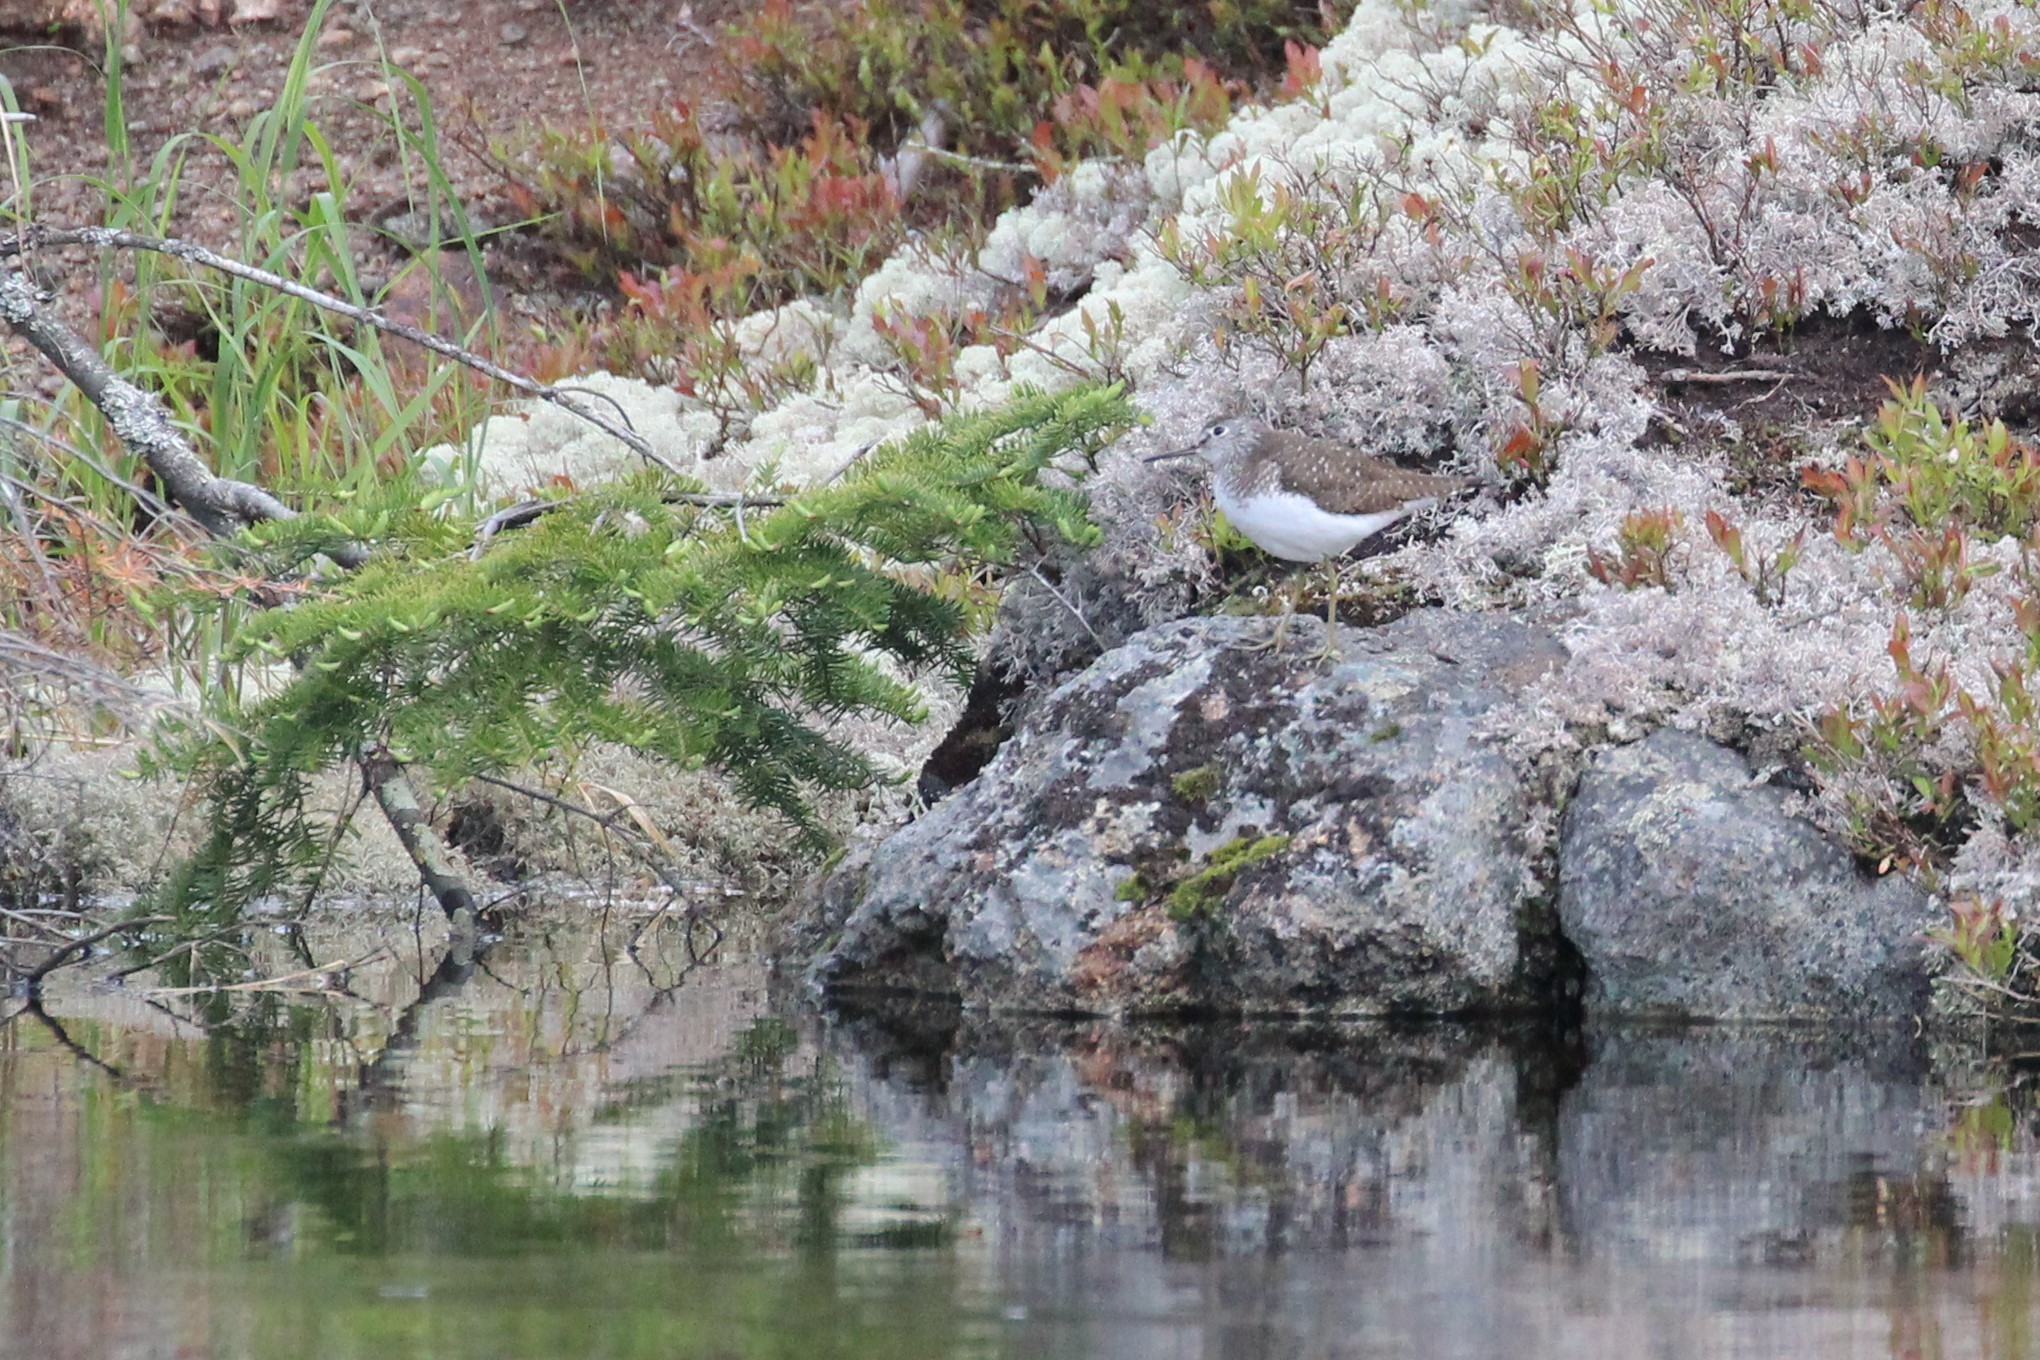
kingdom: Animalia
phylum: Chordata
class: Aves
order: Charadriiformes
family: Scolopacidae
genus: Tringa
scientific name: Tringa solitaria
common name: Solitary sandpiper
